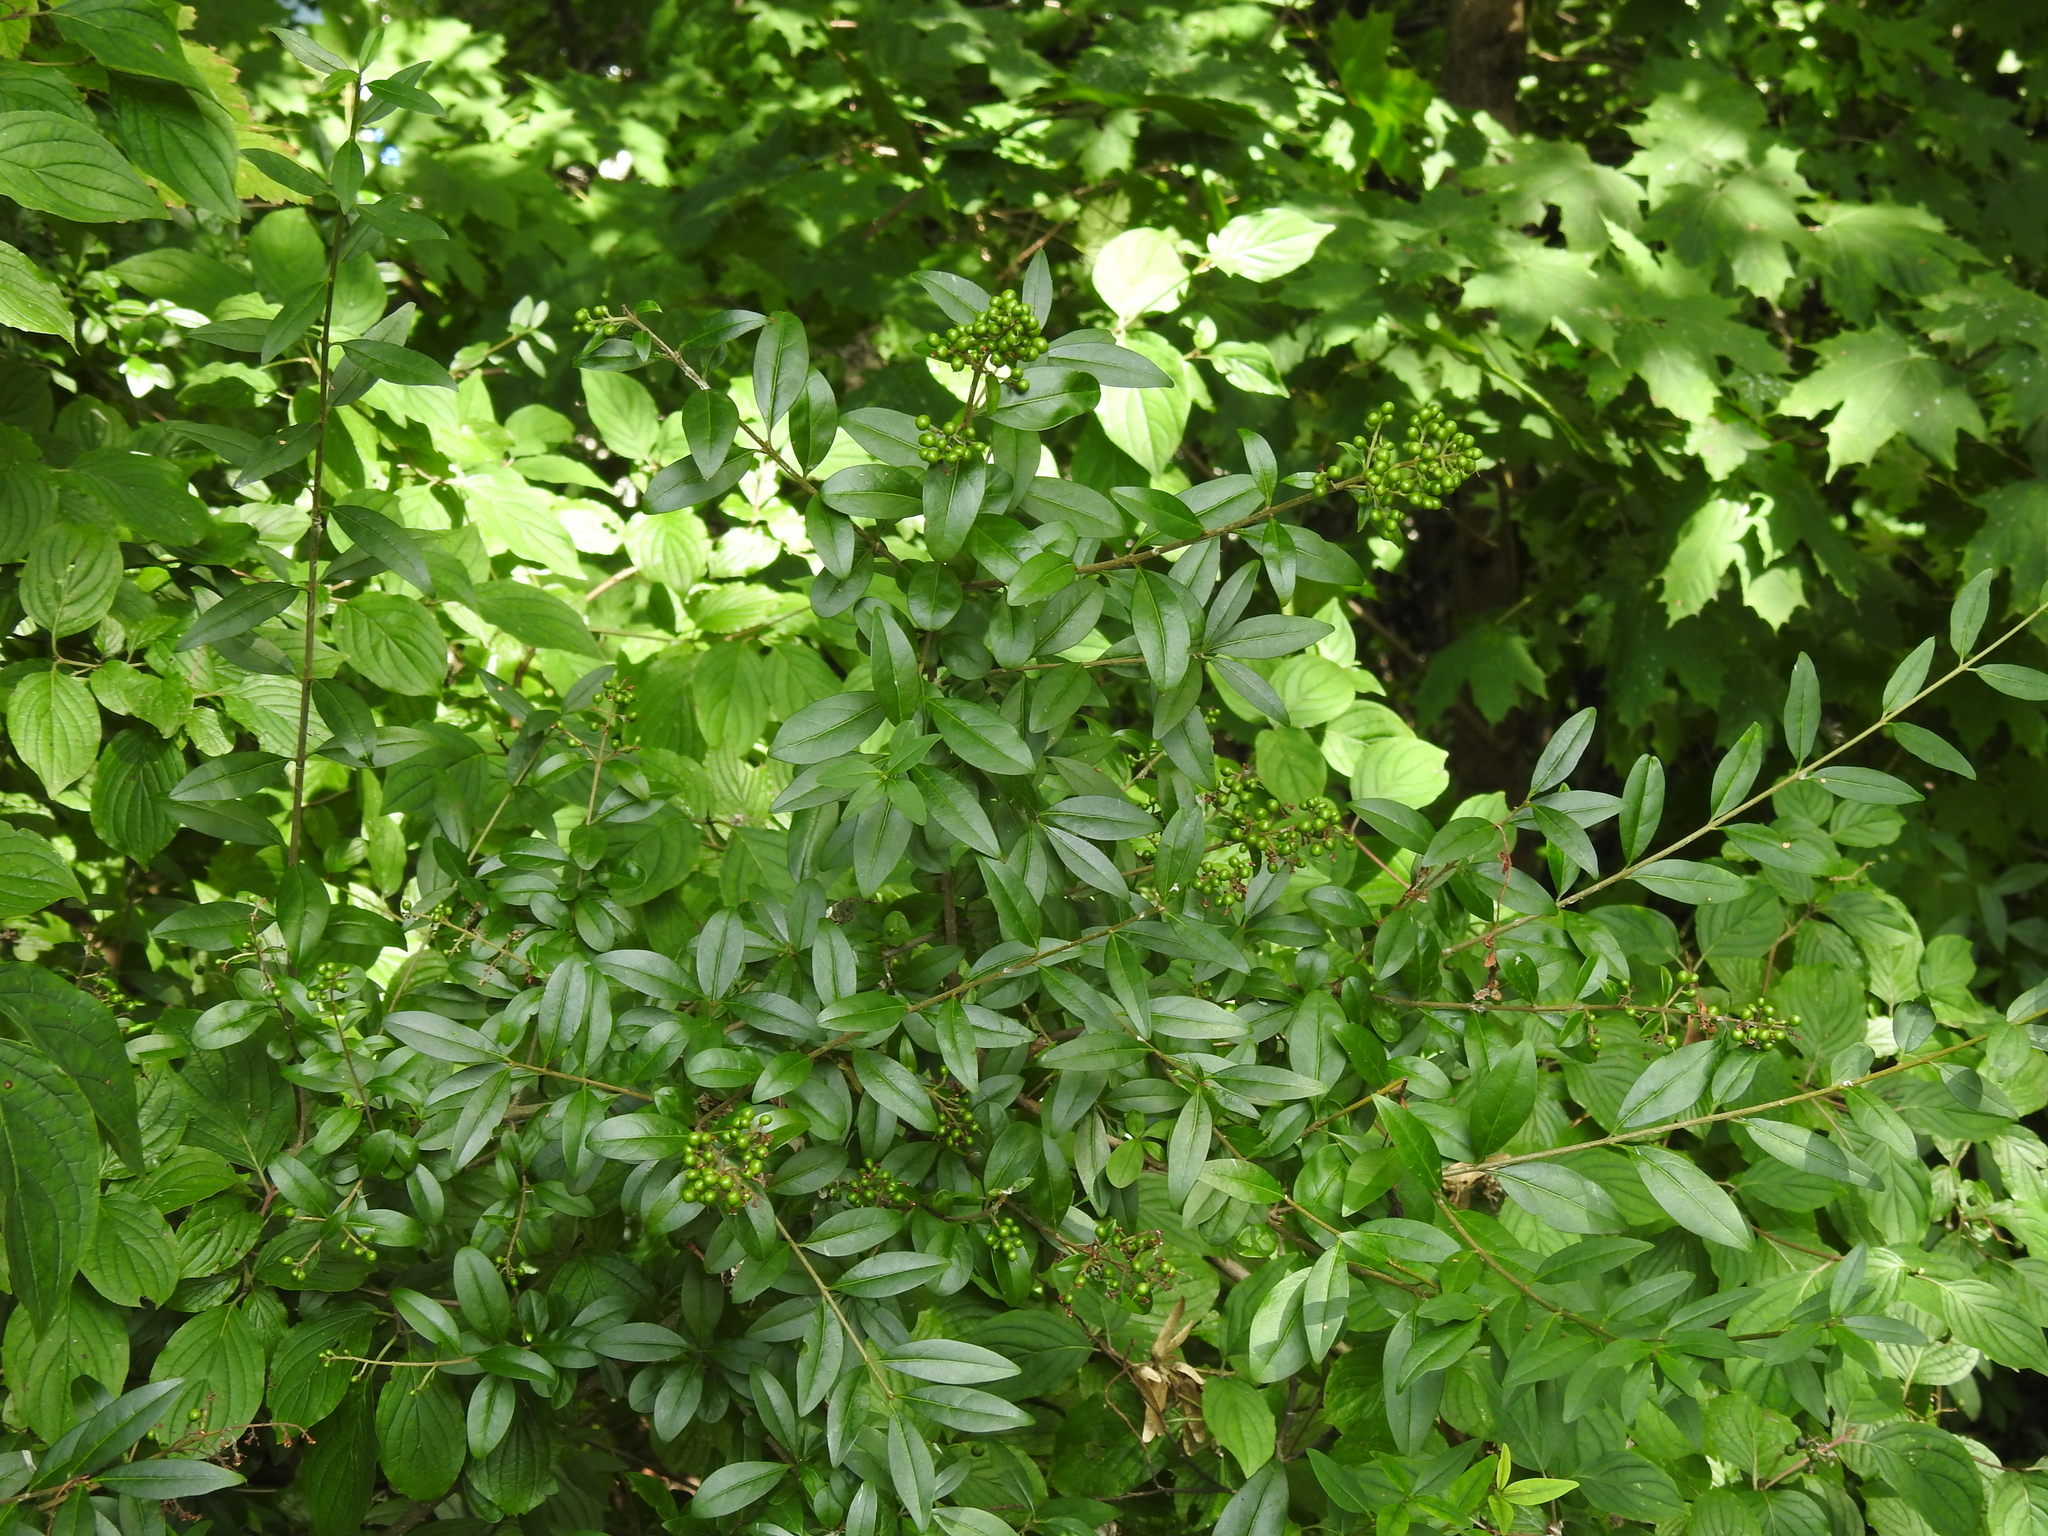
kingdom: Plantae
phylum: Tracheophyta
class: Magnoliopsida
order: Lamiales
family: Oleaceae
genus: Ligustrum
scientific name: Ligustrum vulgare
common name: Wild privet
